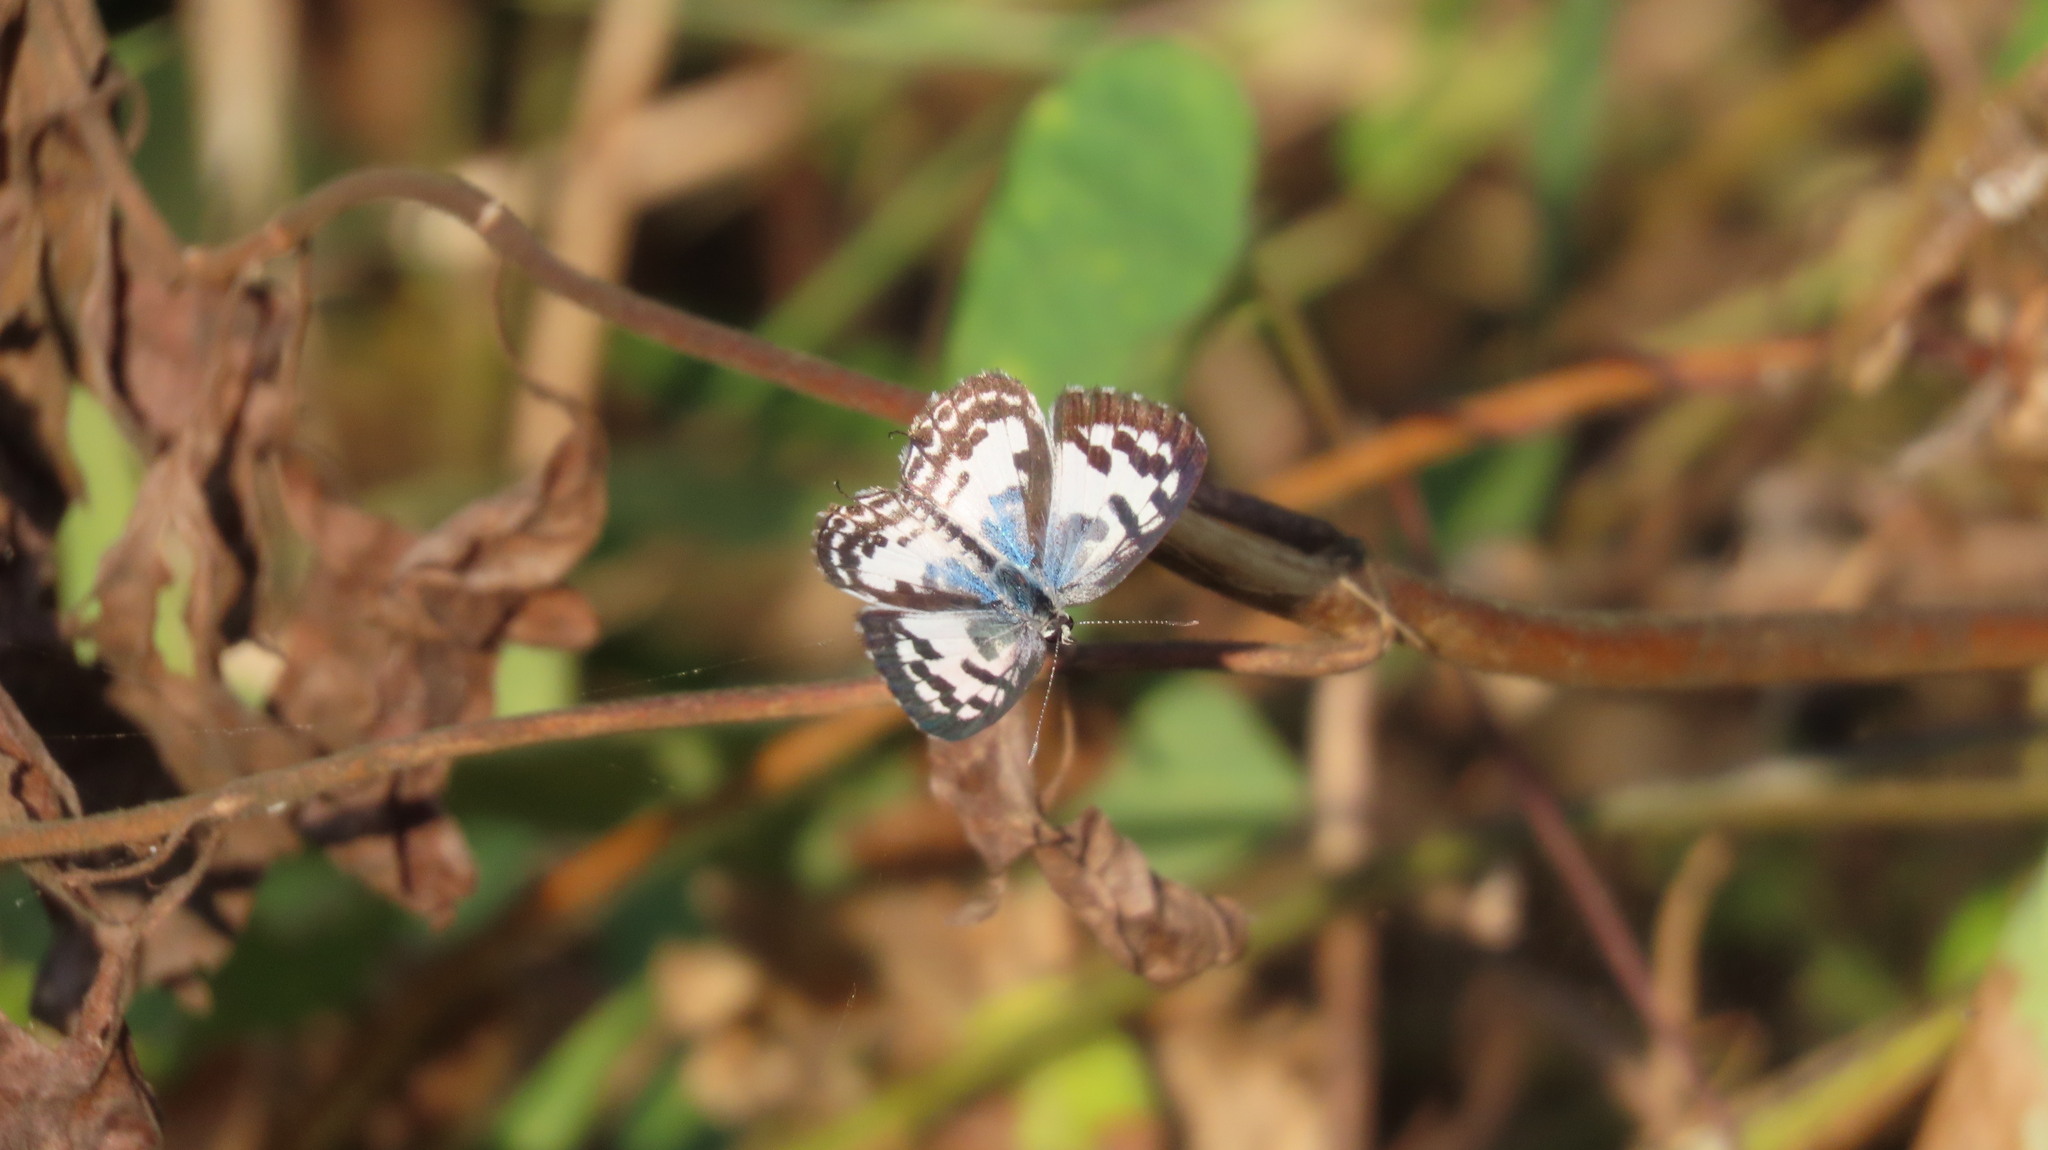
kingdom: Animalia
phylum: Arthropoda
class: Insecta
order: Lepidoptera
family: Lycaenidae
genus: Castalius
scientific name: Castalius rosimon
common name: Common pierrot
